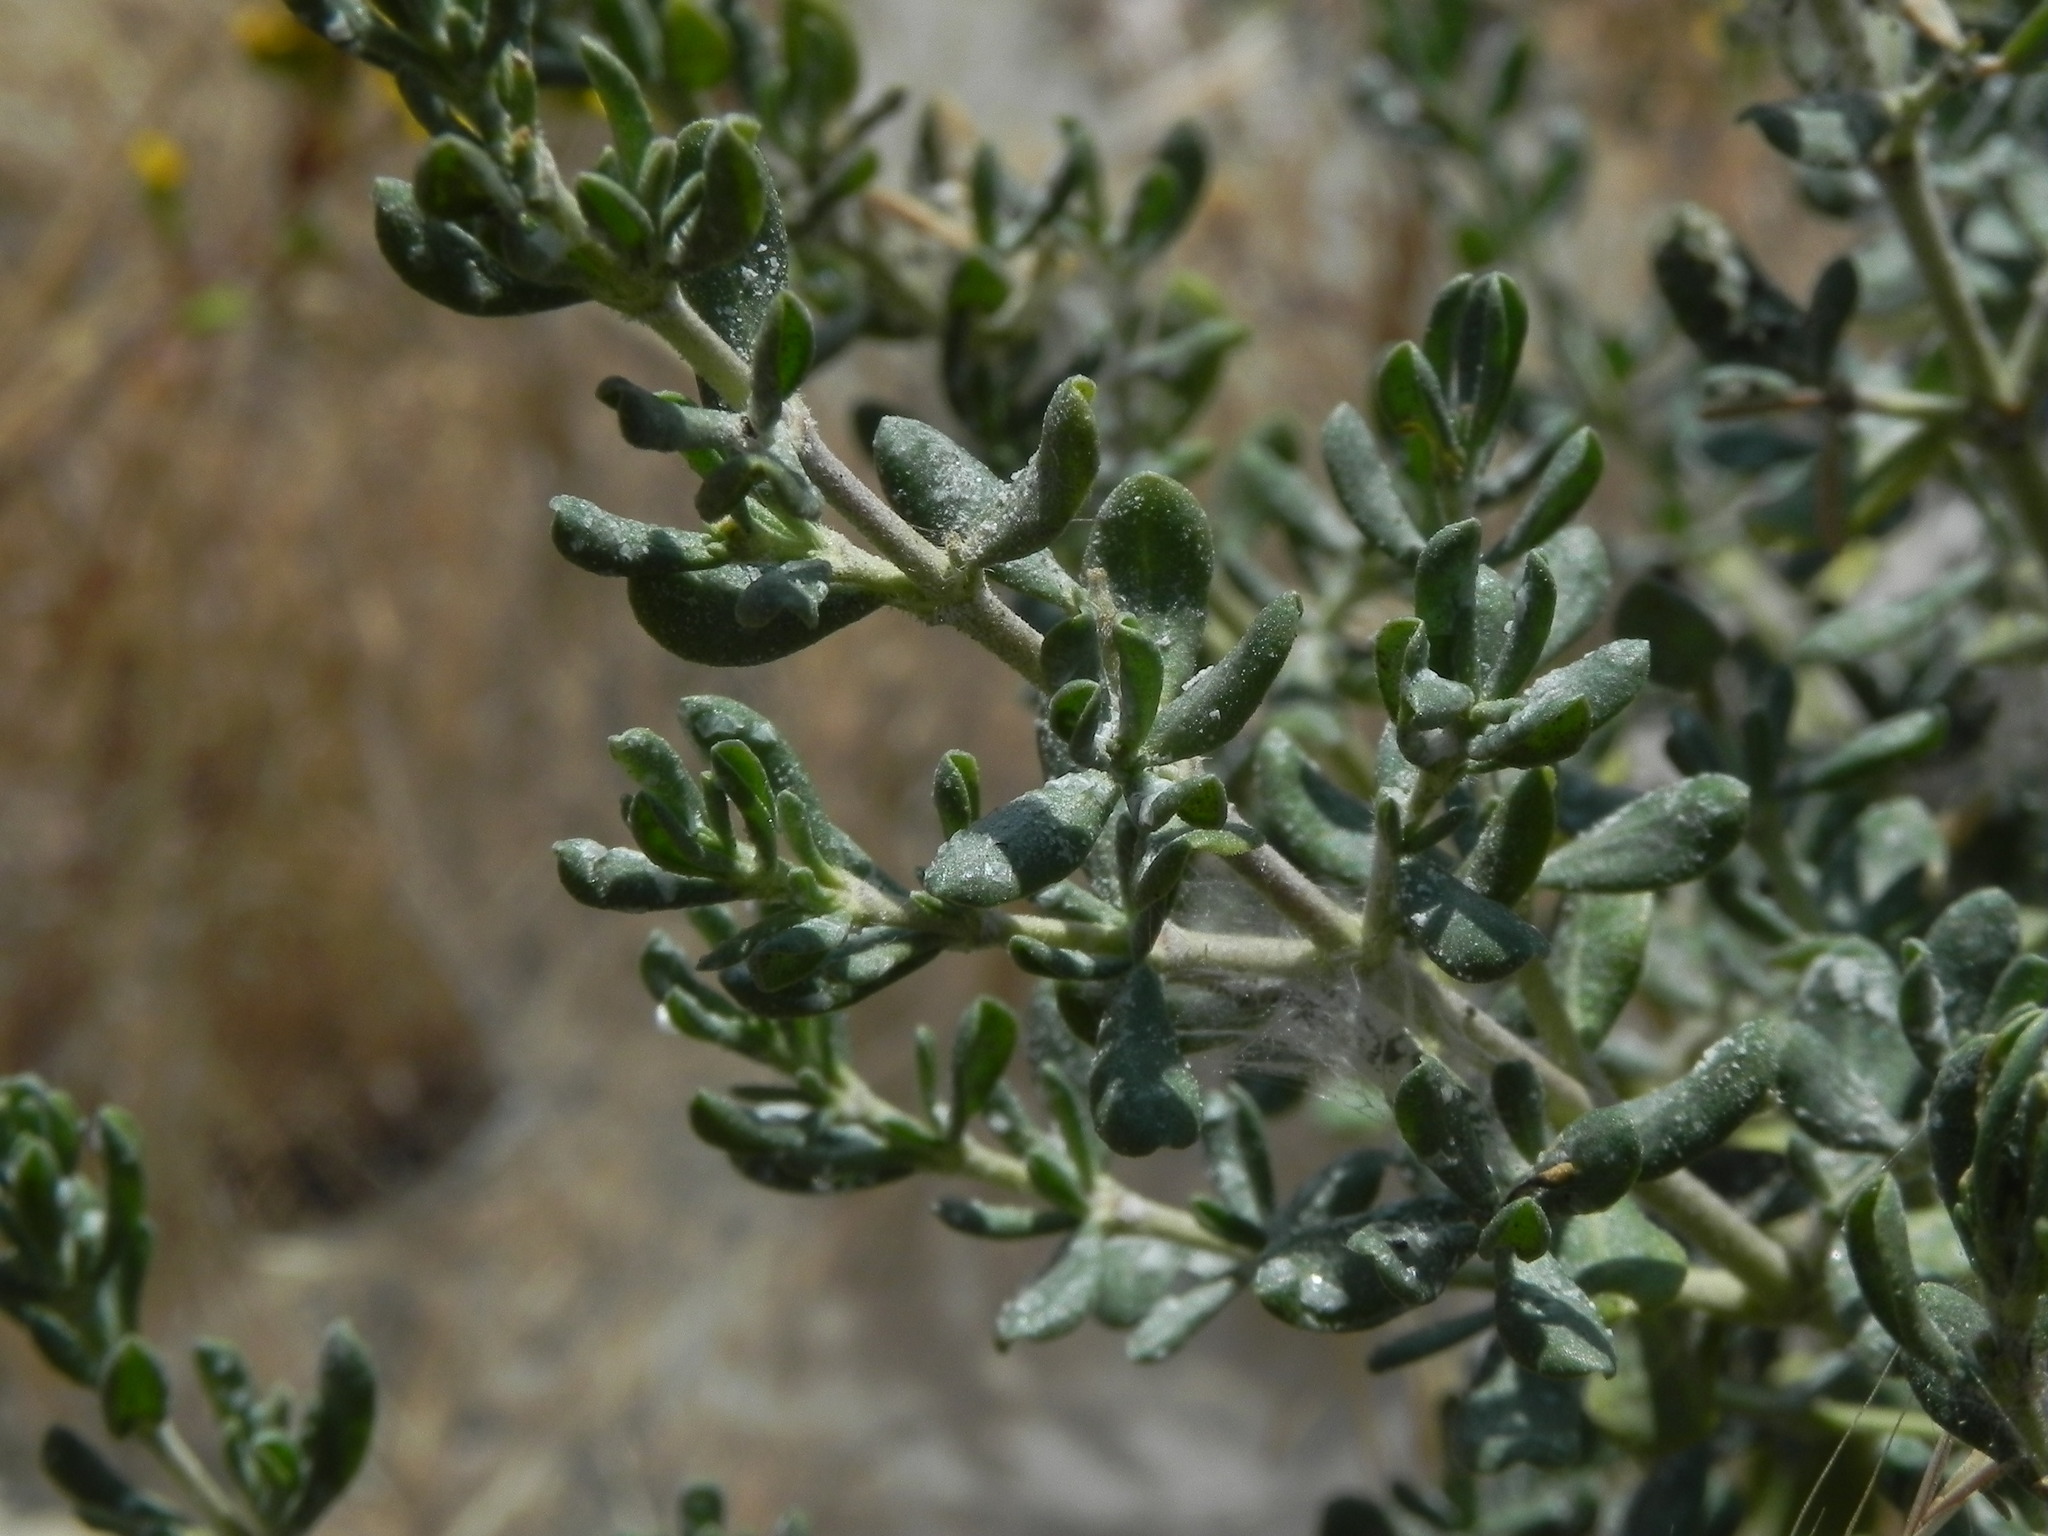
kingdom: Plantae
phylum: Tracheophyta
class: Magnoliopsida
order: Caryophyllales
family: Frankeniaceae
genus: Frankenia
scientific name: Frankenia salina
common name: Alkali seaheath
